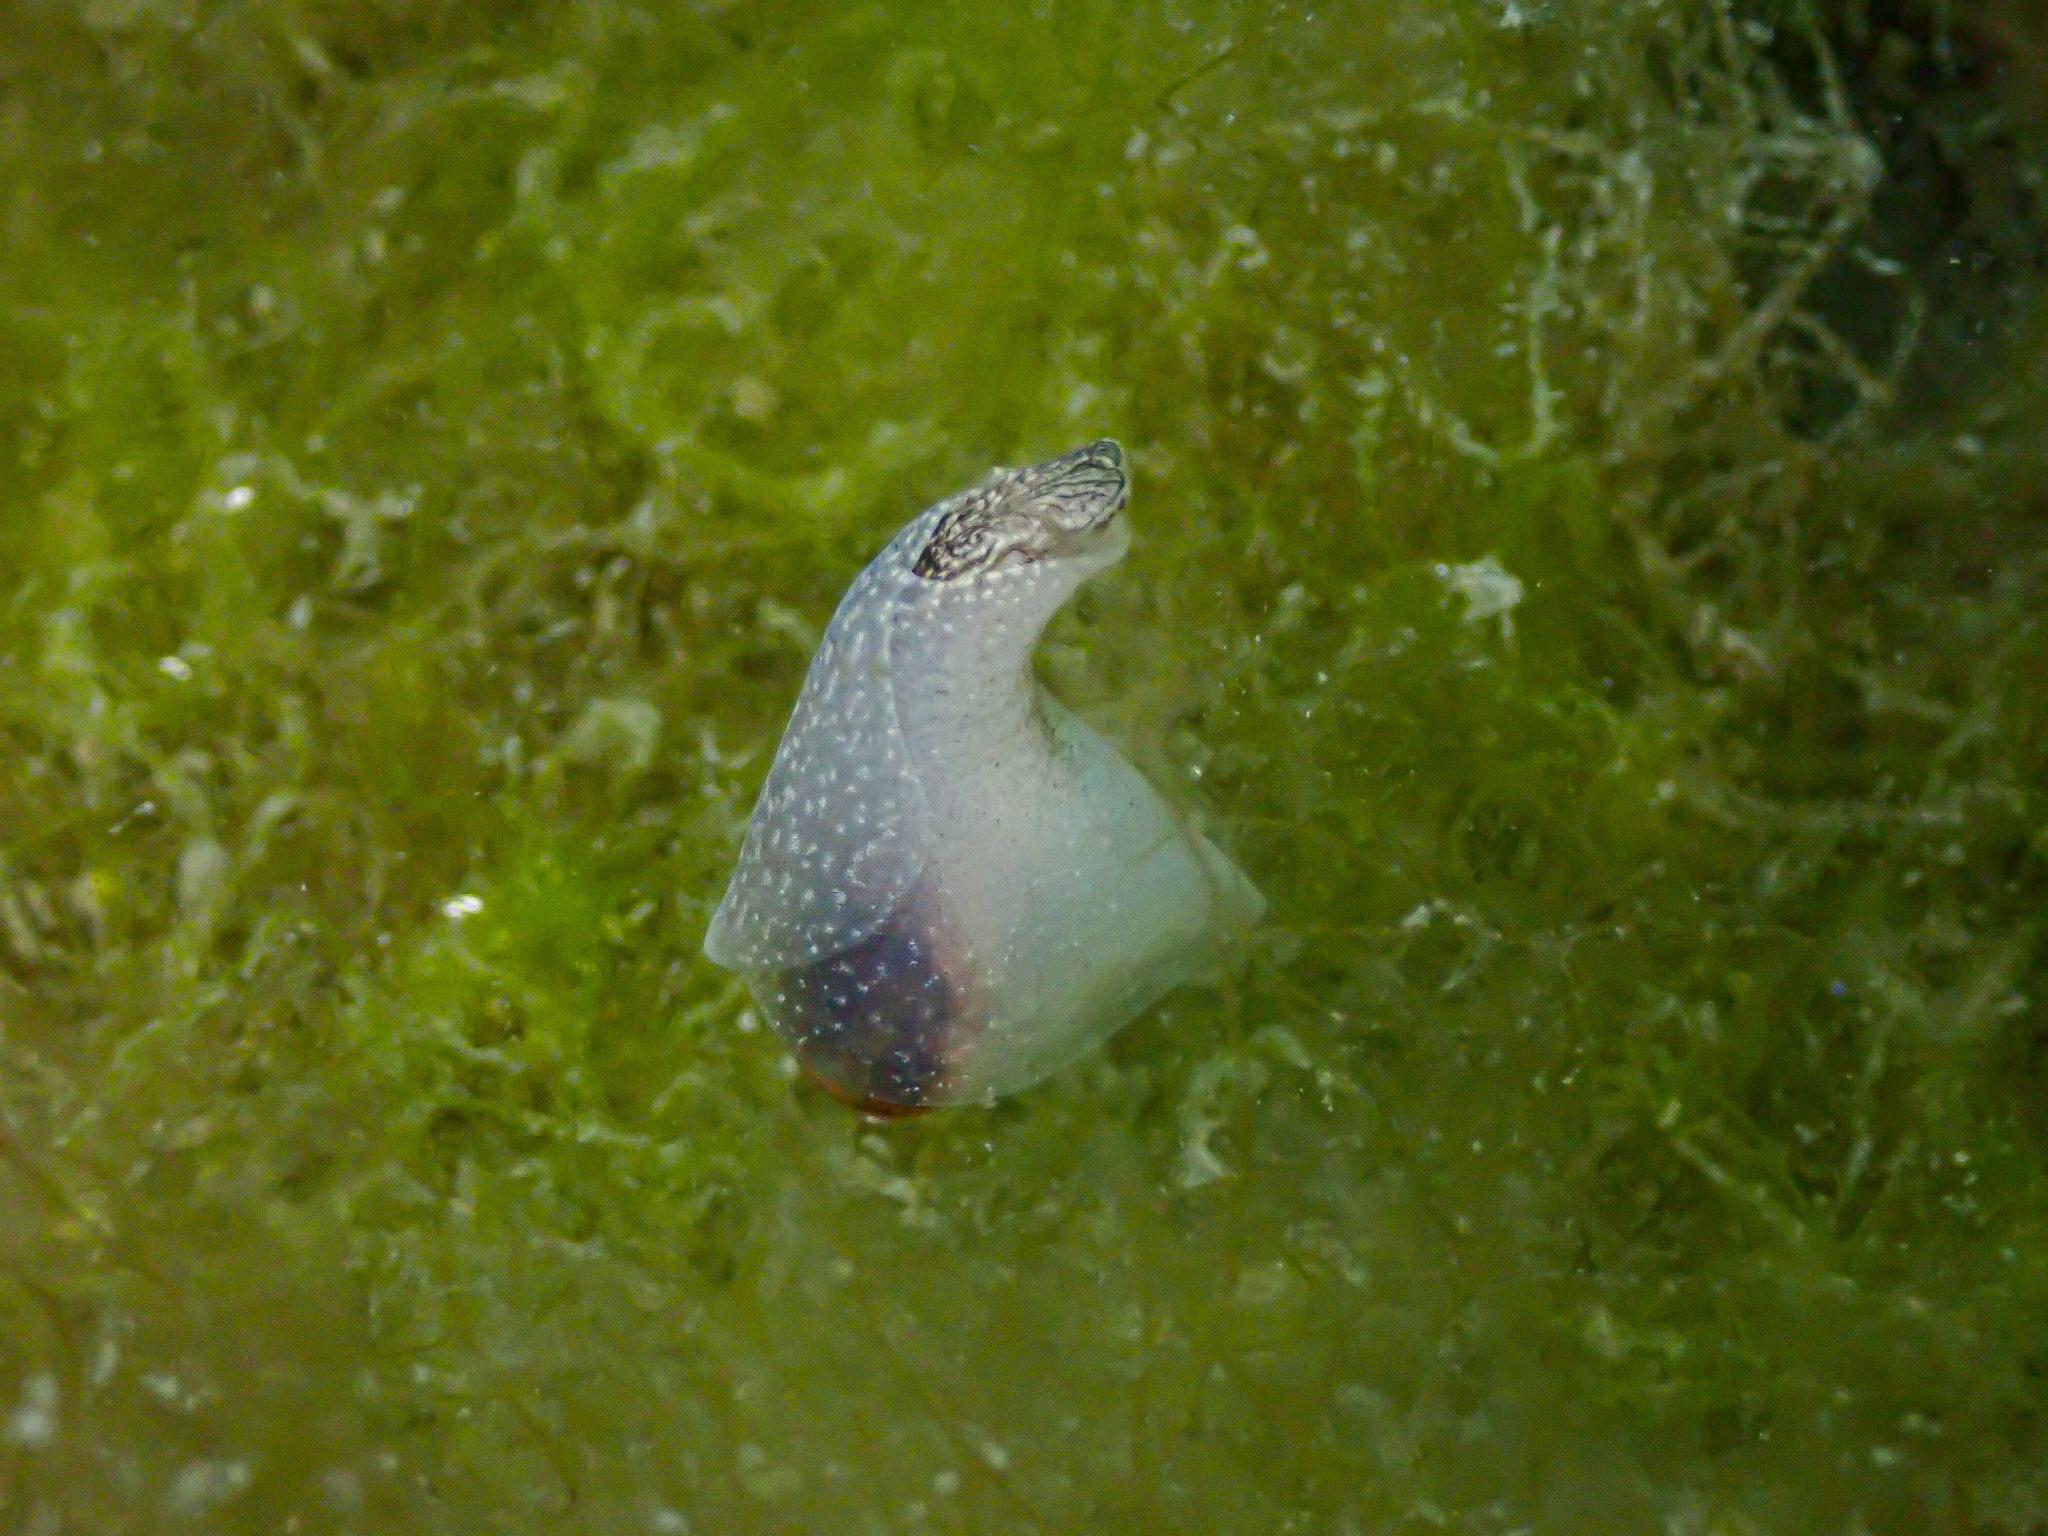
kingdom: Animalia
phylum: Mollusca
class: Gastropoda
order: Aplysiida
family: Akeridae
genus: Akera
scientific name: Akera bullata
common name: Common bubble snail
